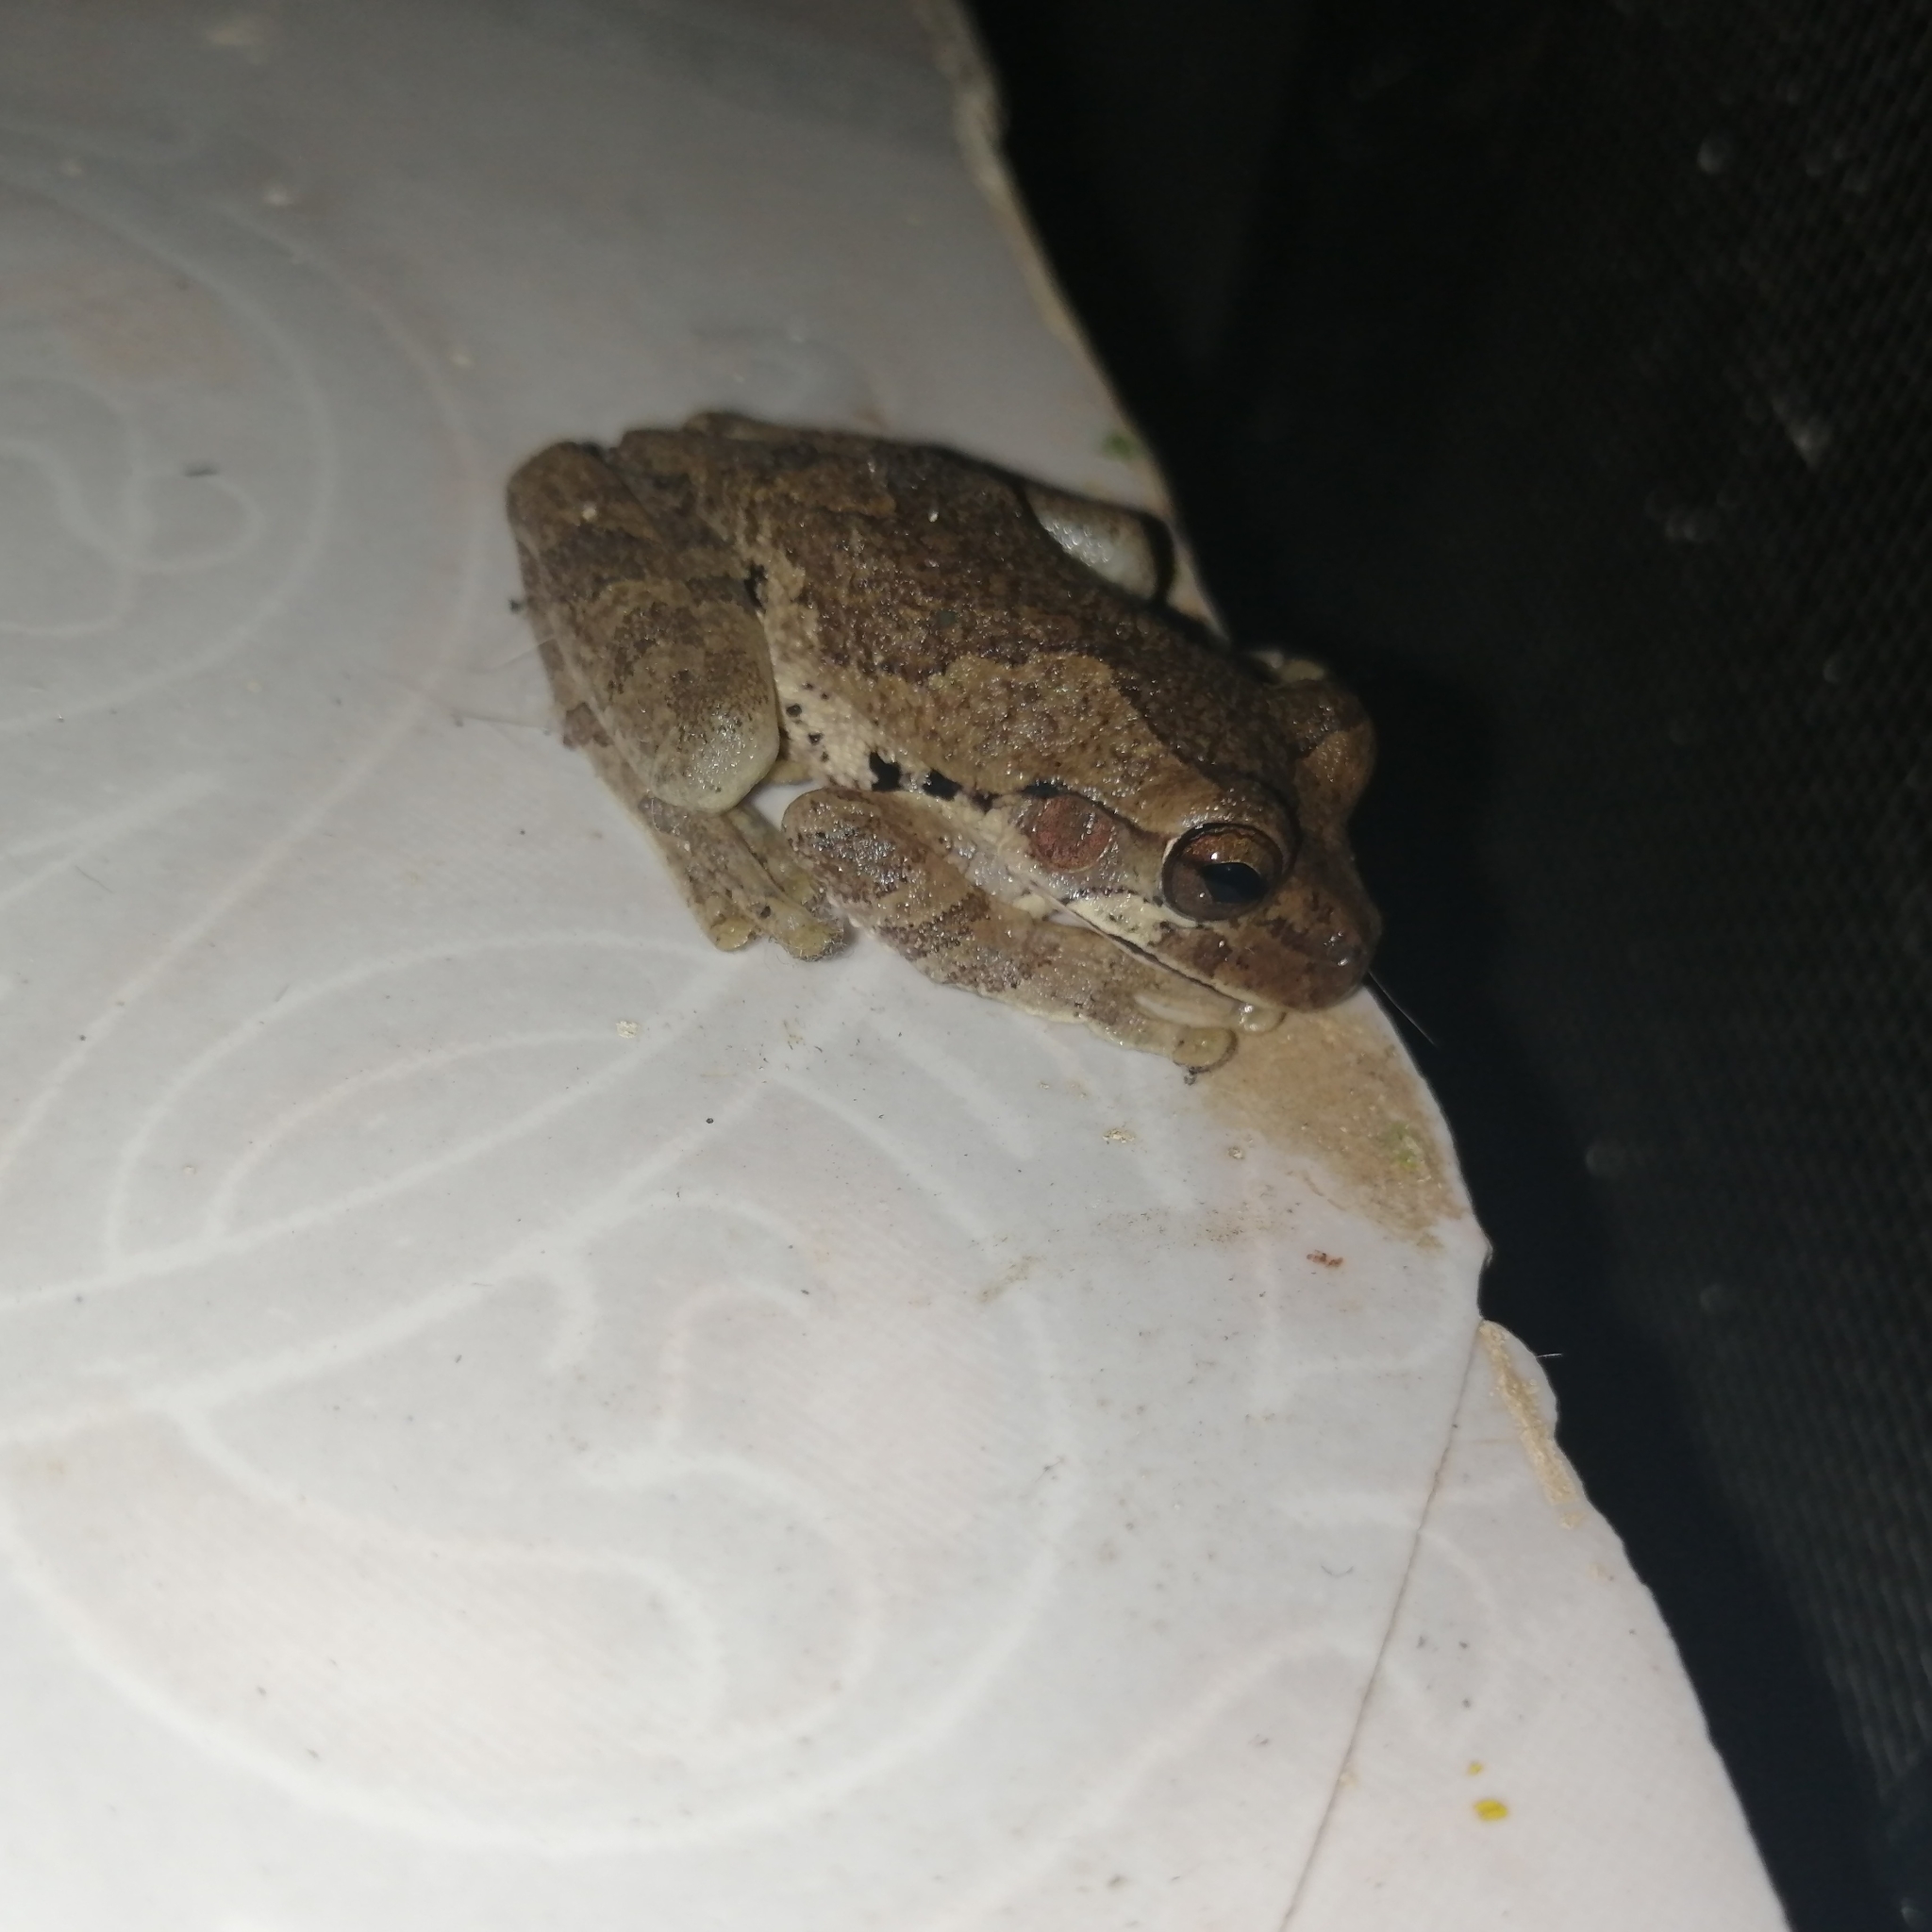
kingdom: Animalia
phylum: Chordata
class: Amphibia
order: Anura
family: Hylidae
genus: Smilisca
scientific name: Smilisca baudinii
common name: Mexican smilisca
